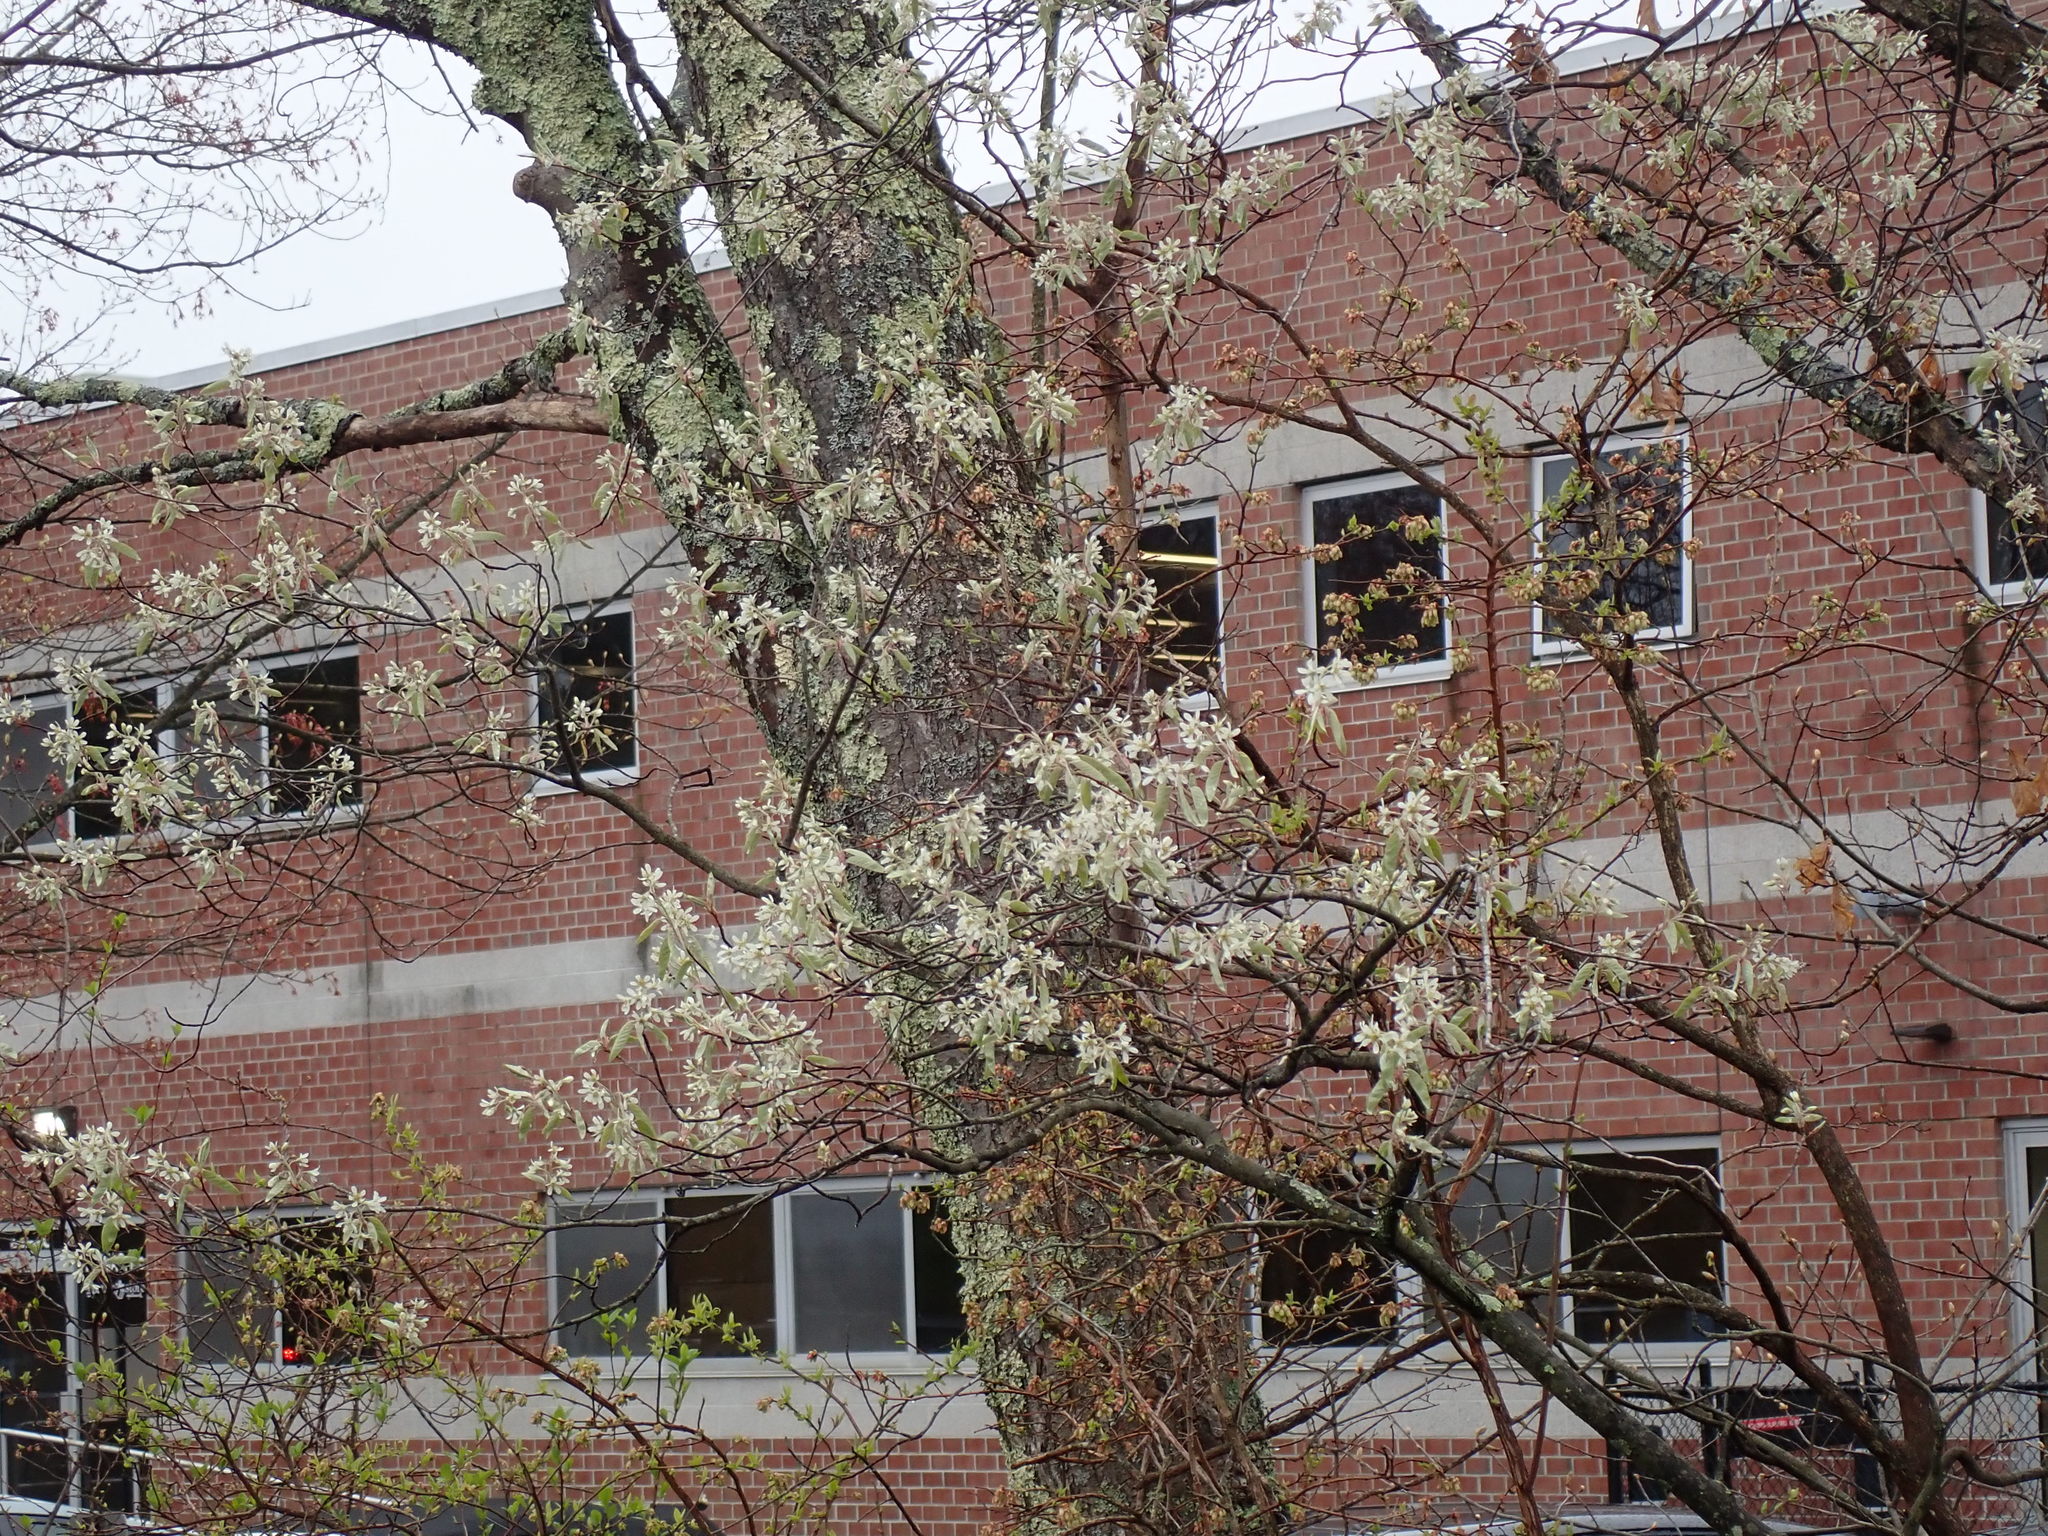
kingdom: Plantae
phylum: Tracheophyta
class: Magnoliopsida
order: Rosales
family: Rosaceae
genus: Amelanchier
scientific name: Amelanchier arborea
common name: Downy serviceberry
